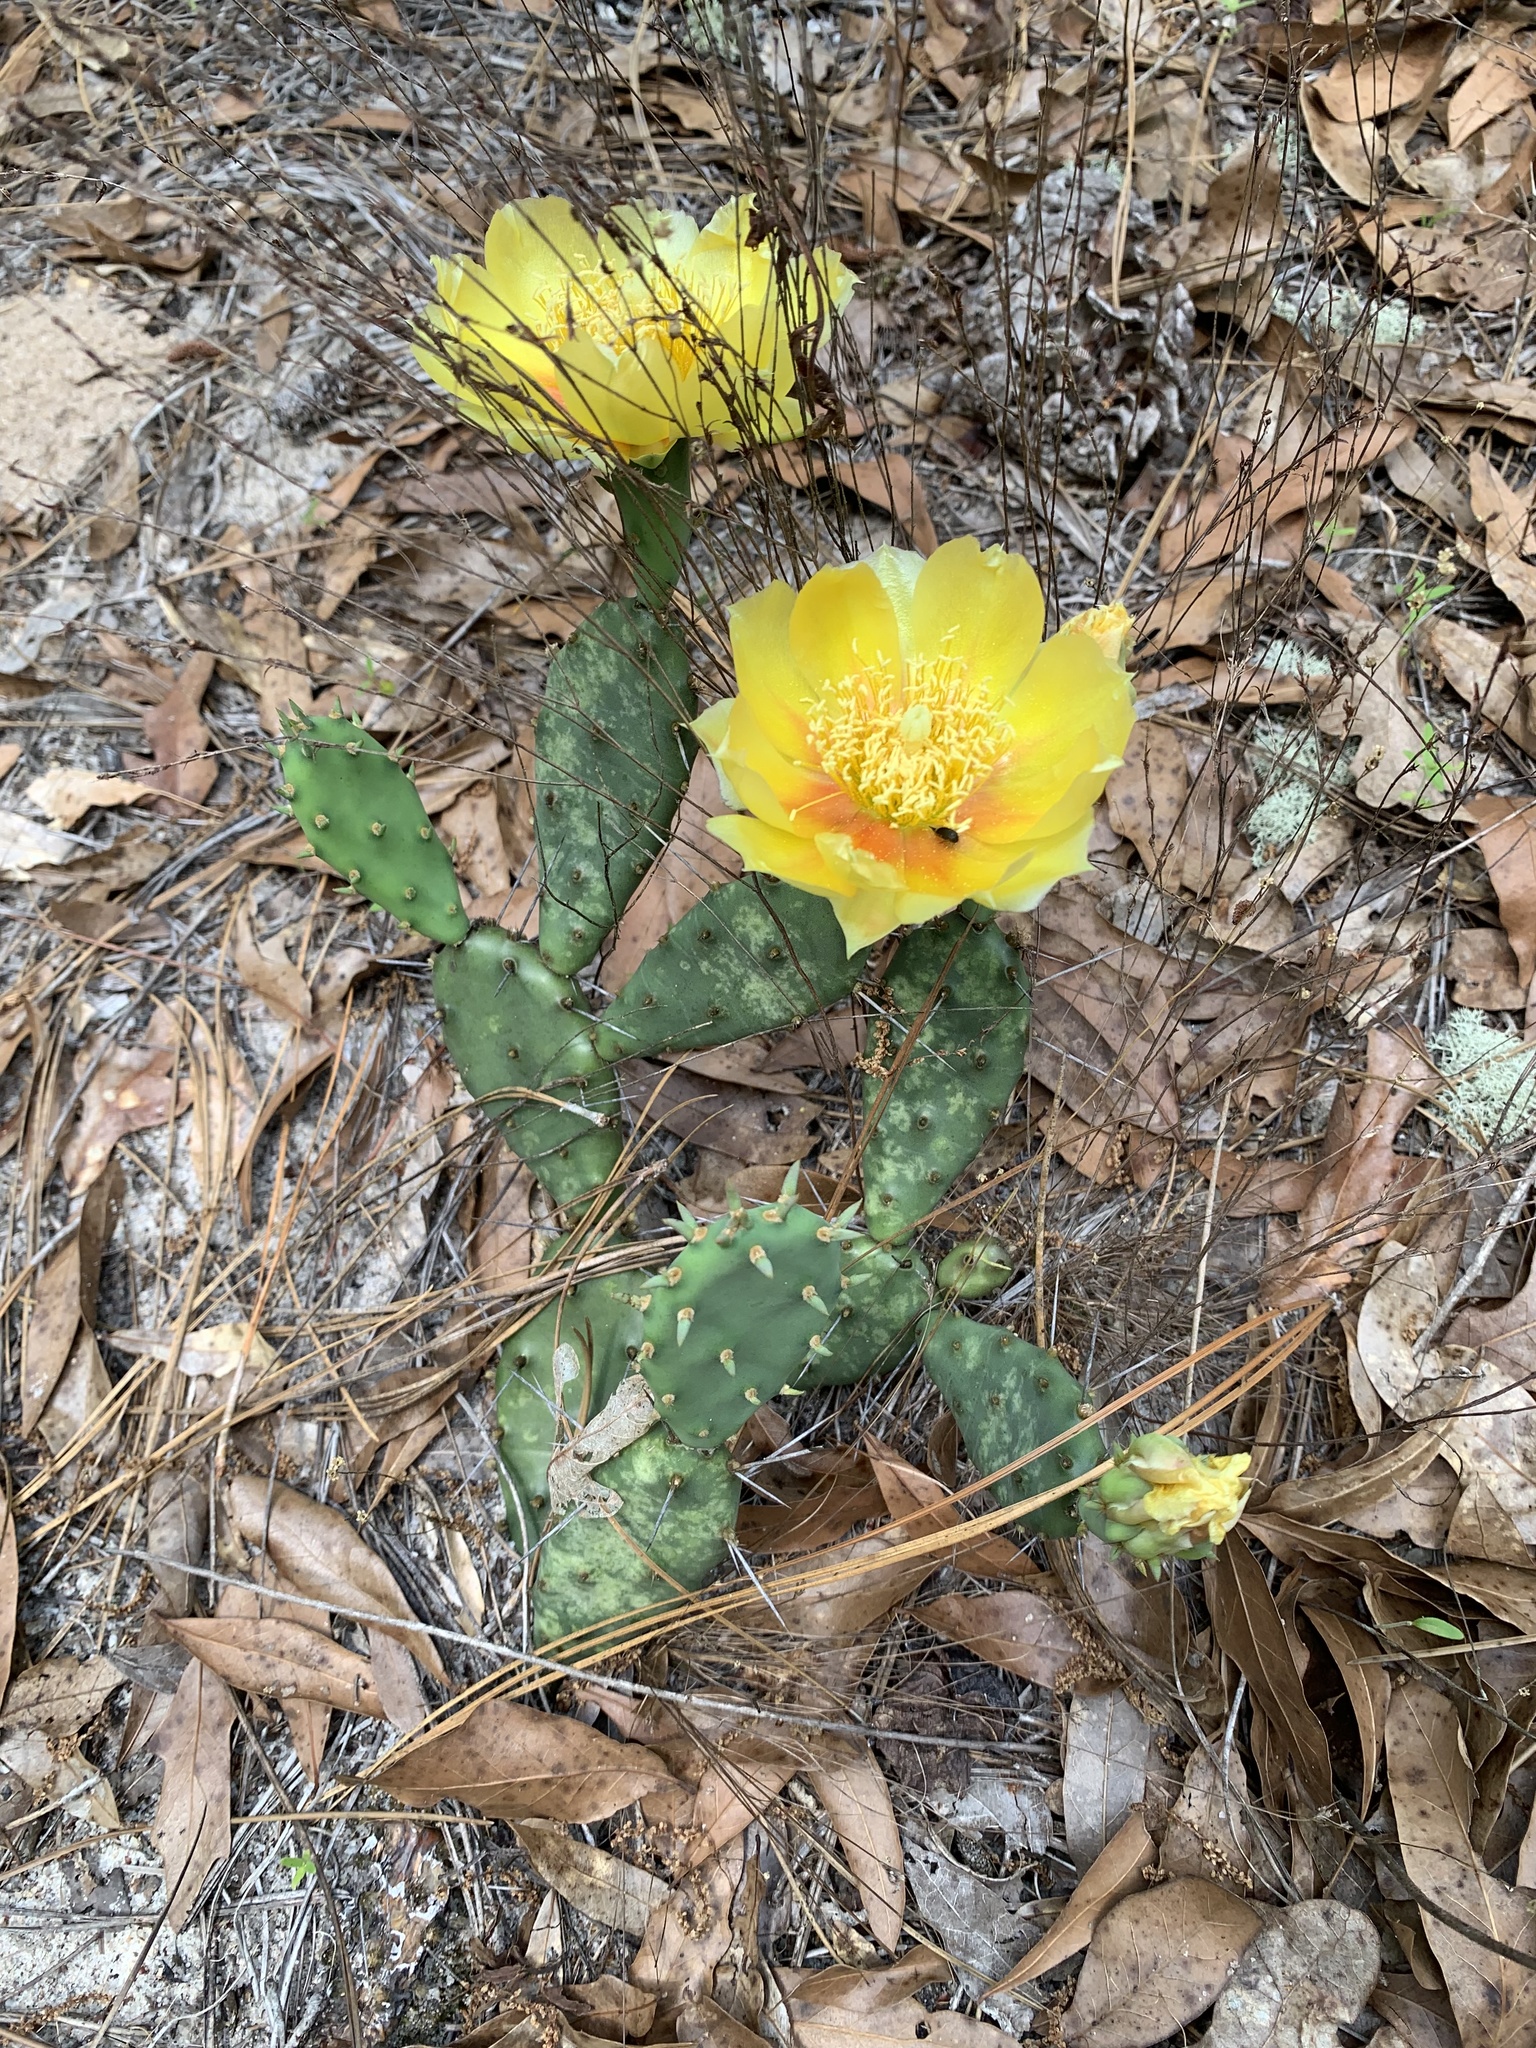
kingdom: Plantae
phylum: Tracheophyta
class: Magnoliopsida
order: Caryophyllales
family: Cactaceae
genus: Opuntia
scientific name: Opuntia nemoralis
